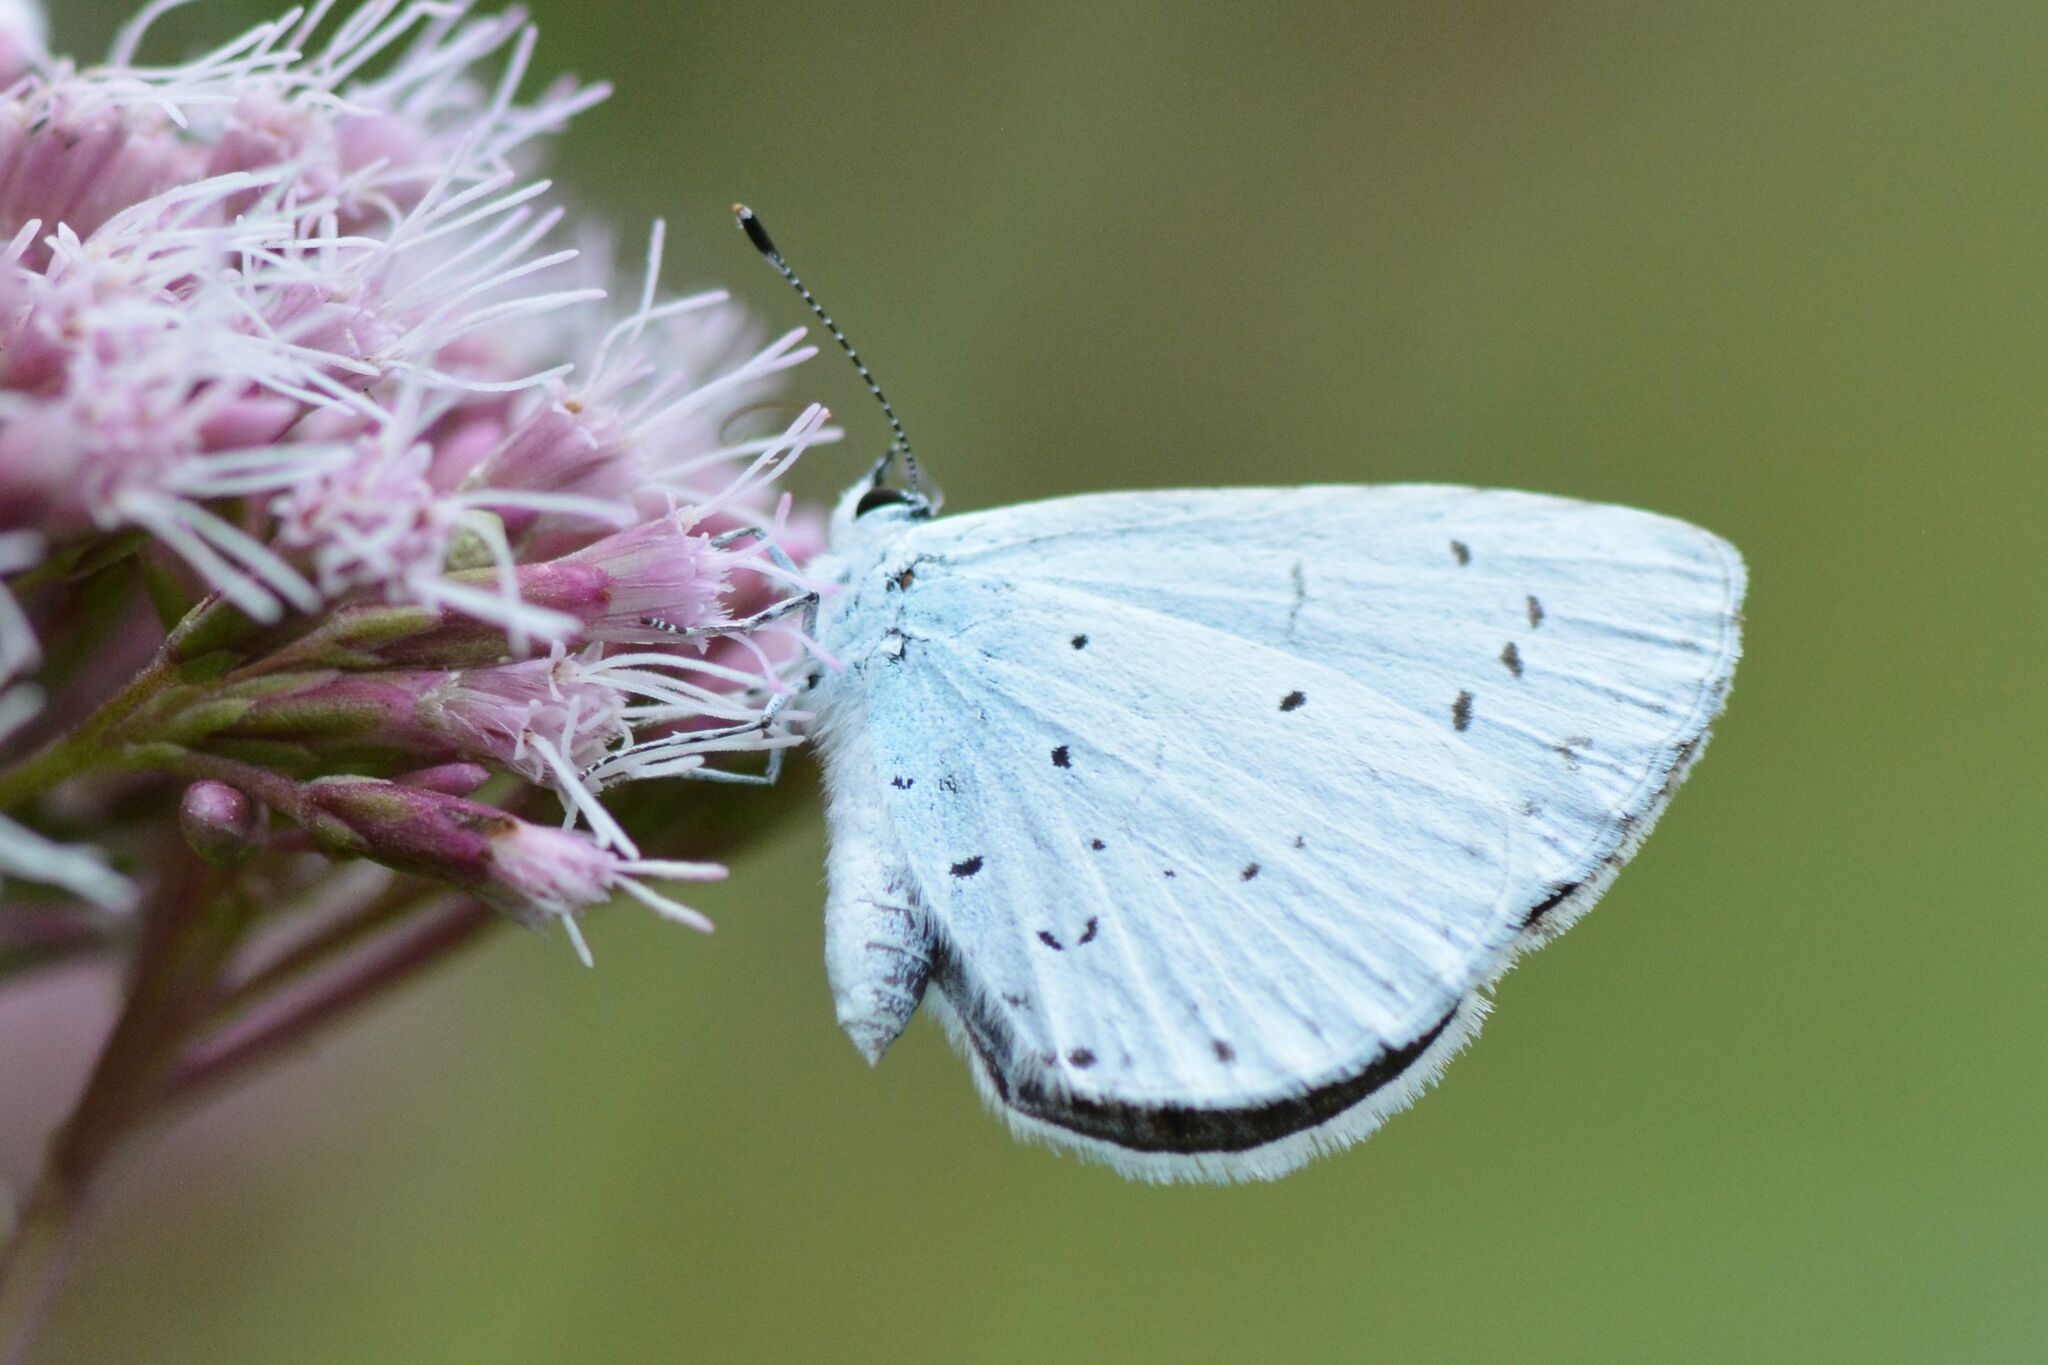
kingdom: Animalia
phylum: Arthropoda
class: Insecta
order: Lepidoptera
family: Lycaenidae
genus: Celastrina
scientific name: Celastrina argiolus
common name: Holly blue
